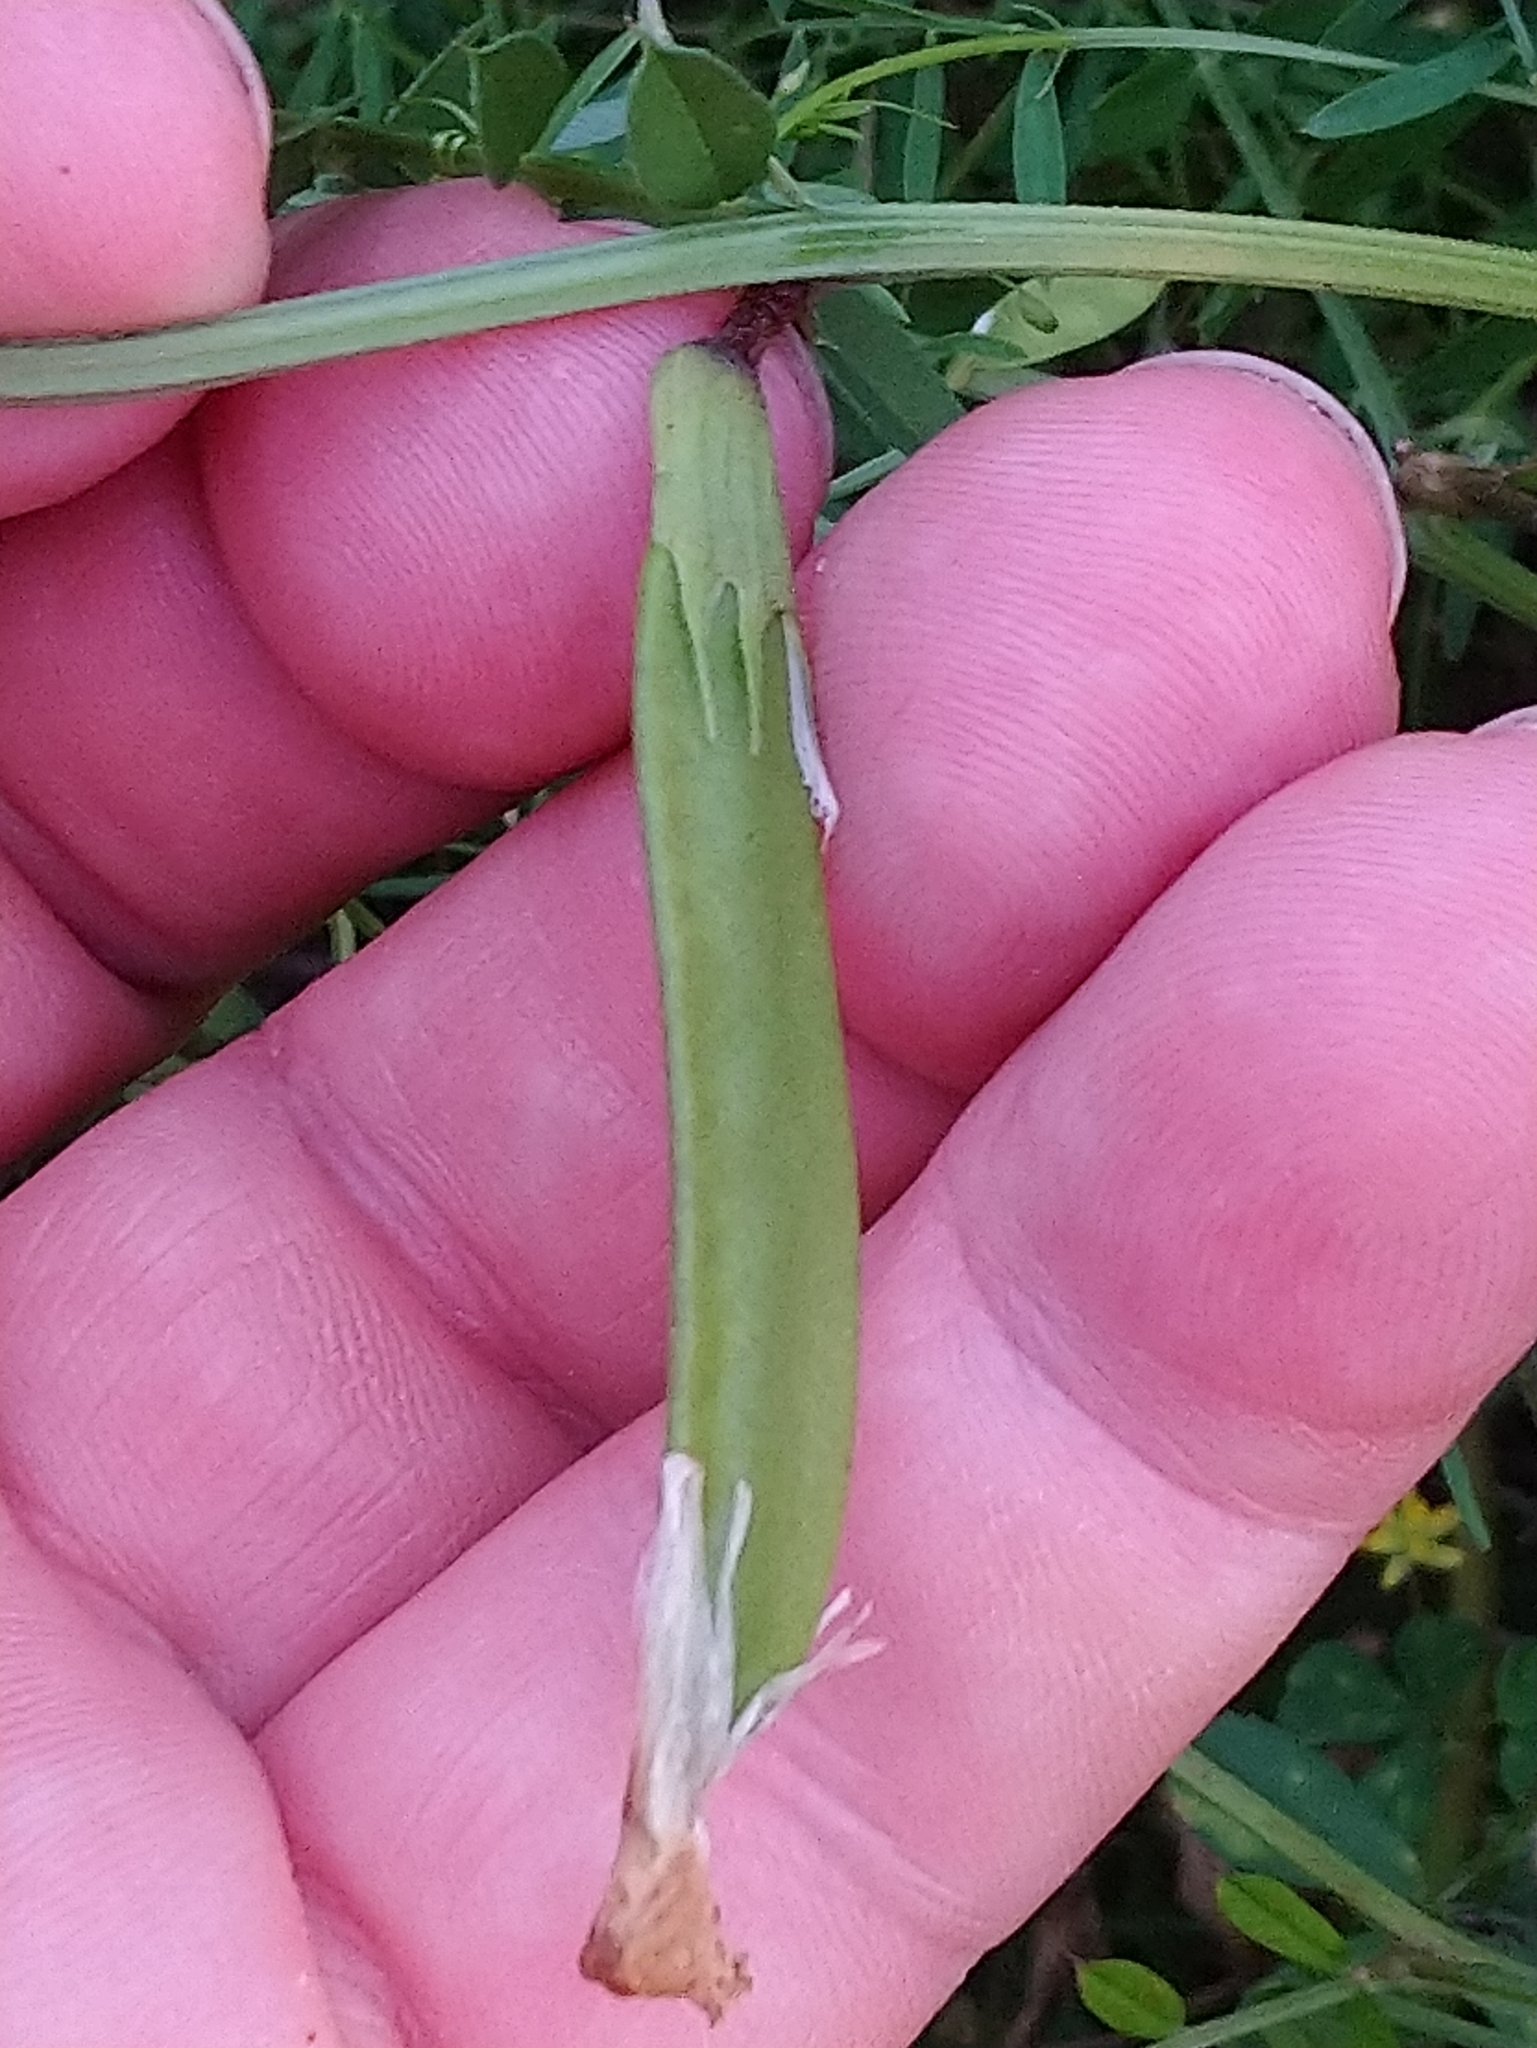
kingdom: Plantae
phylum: Tracheophyta
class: Magnoliopsida
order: Fabales
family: Fabaceae
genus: Vicia
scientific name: Vicia grandiflora
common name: Large yellow vetch
